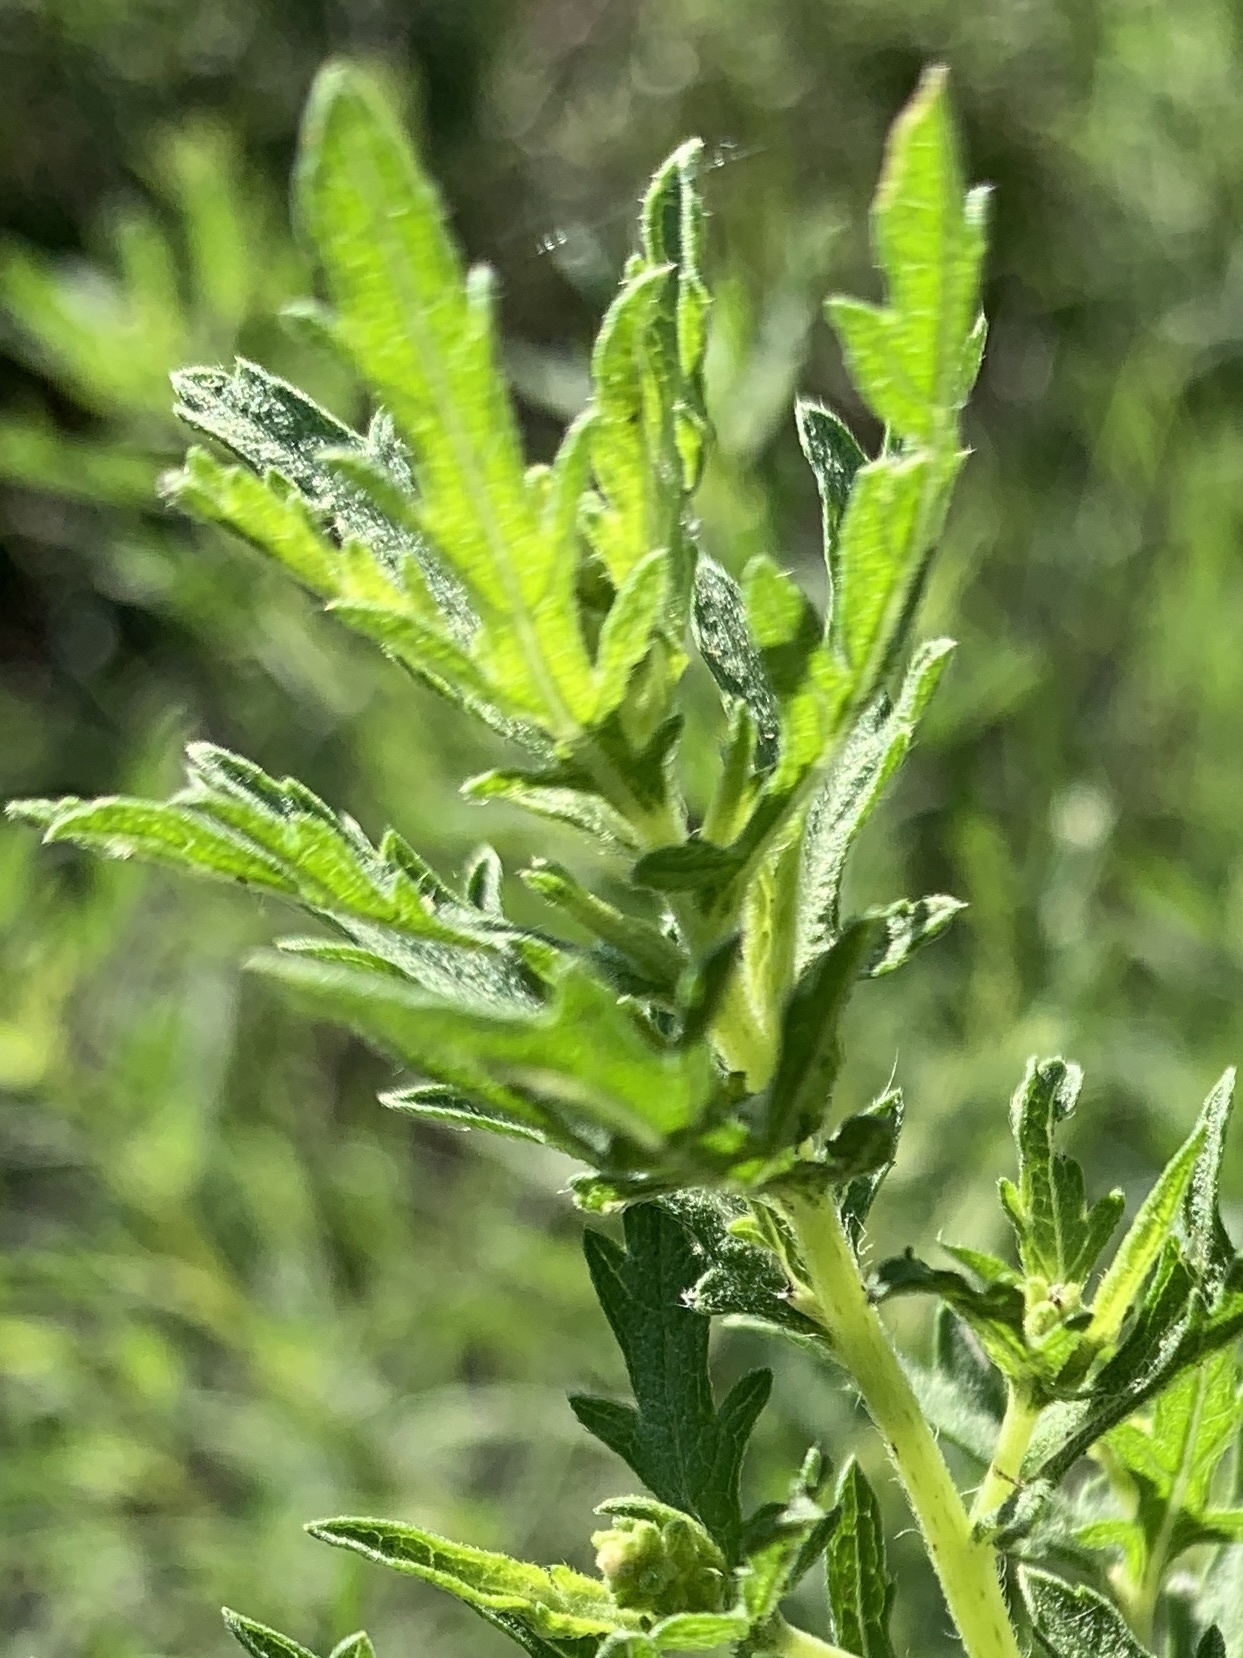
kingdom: Plantae
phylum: Tracheophyta
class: Magnoliopsida
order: Asterales
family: Asteraceae
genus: Ambrosia
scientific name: Ambrosia psilostachya
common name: Perennial ragweed
